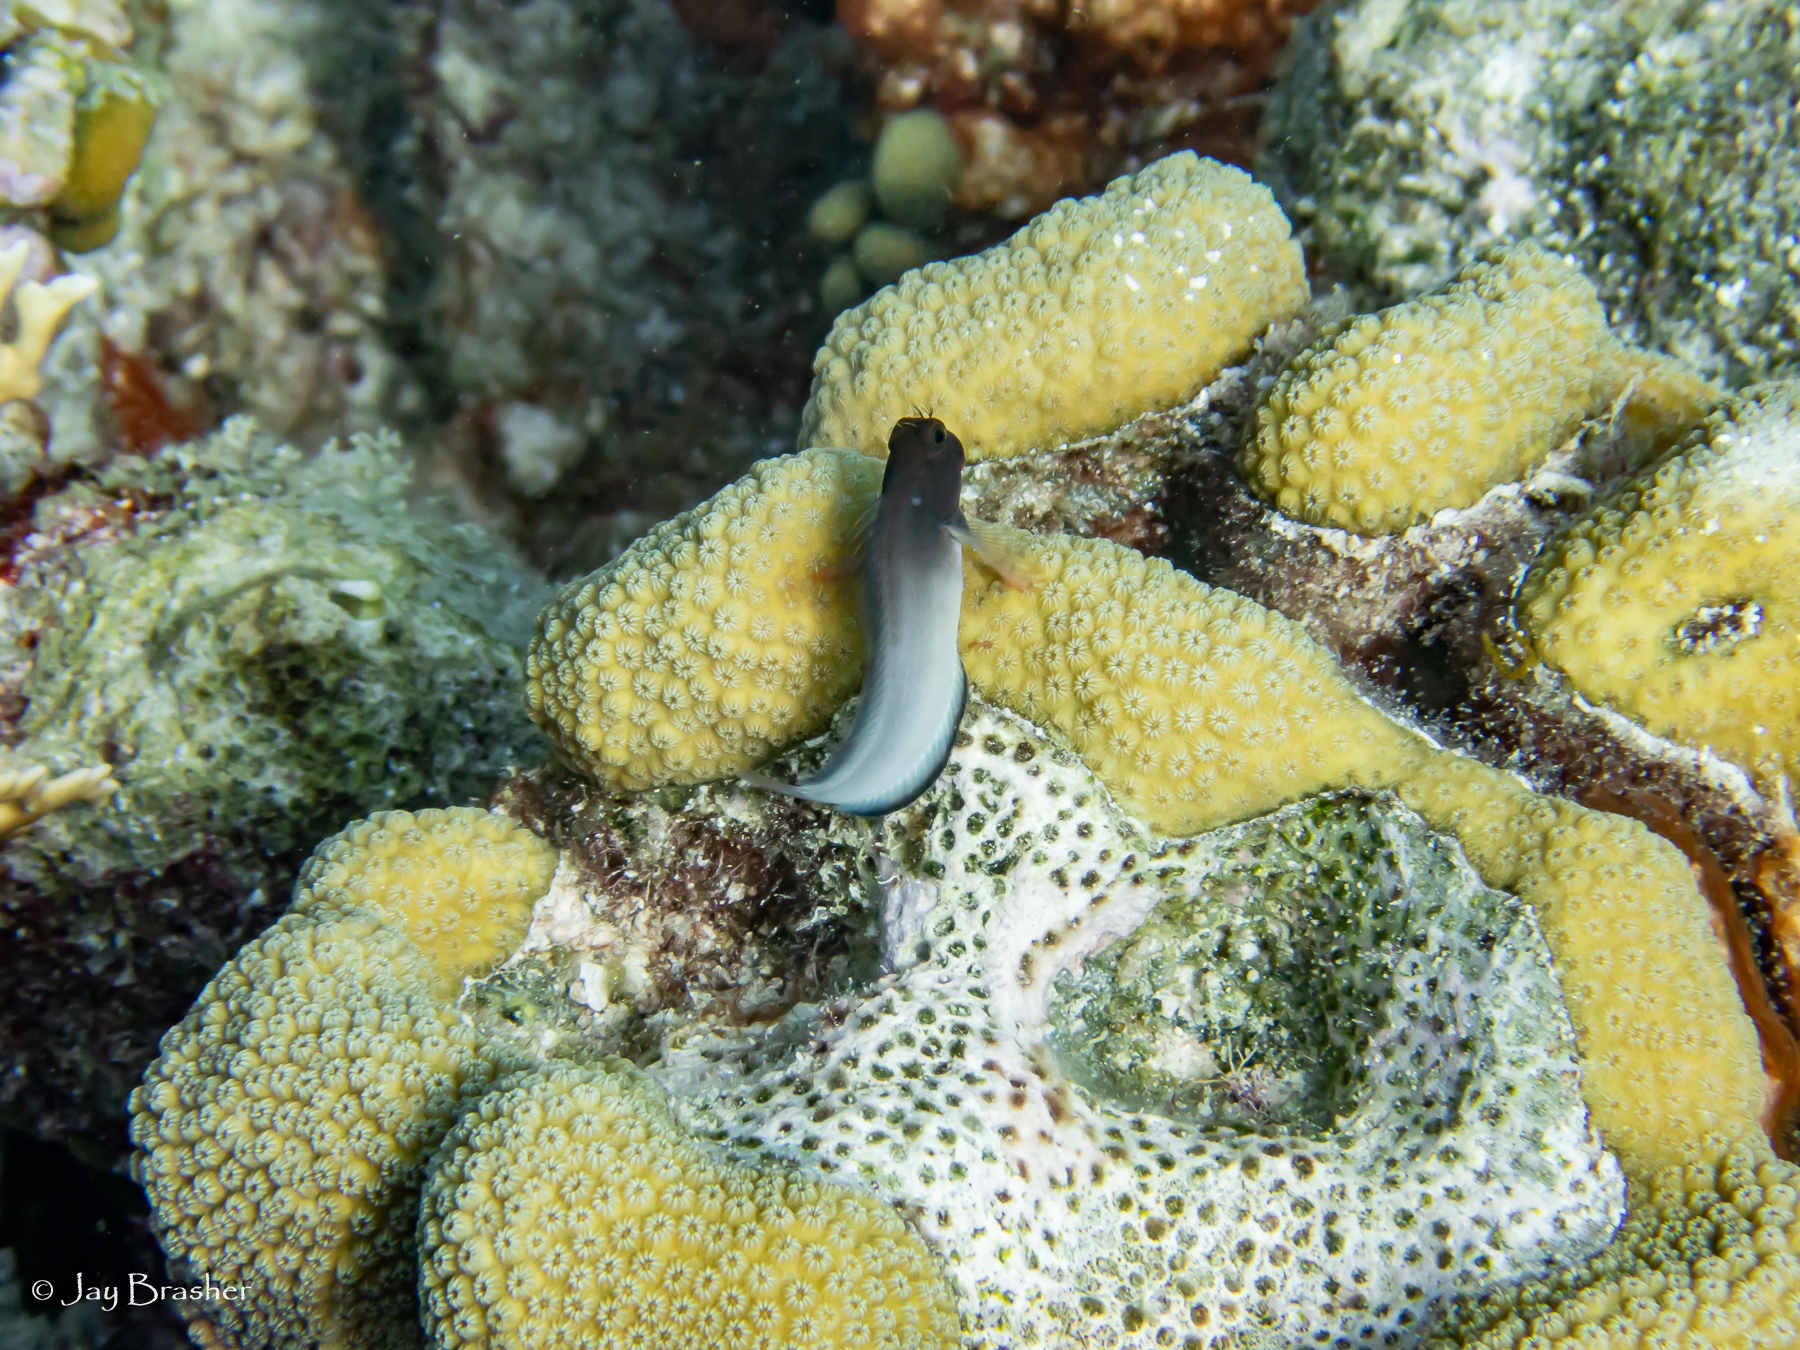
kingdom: Animalia
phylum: Chordata
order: Perciformes
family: Blenniidae
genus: Ophioblennius
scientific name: Ophioblennius macclurei
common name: Redlip blenny
